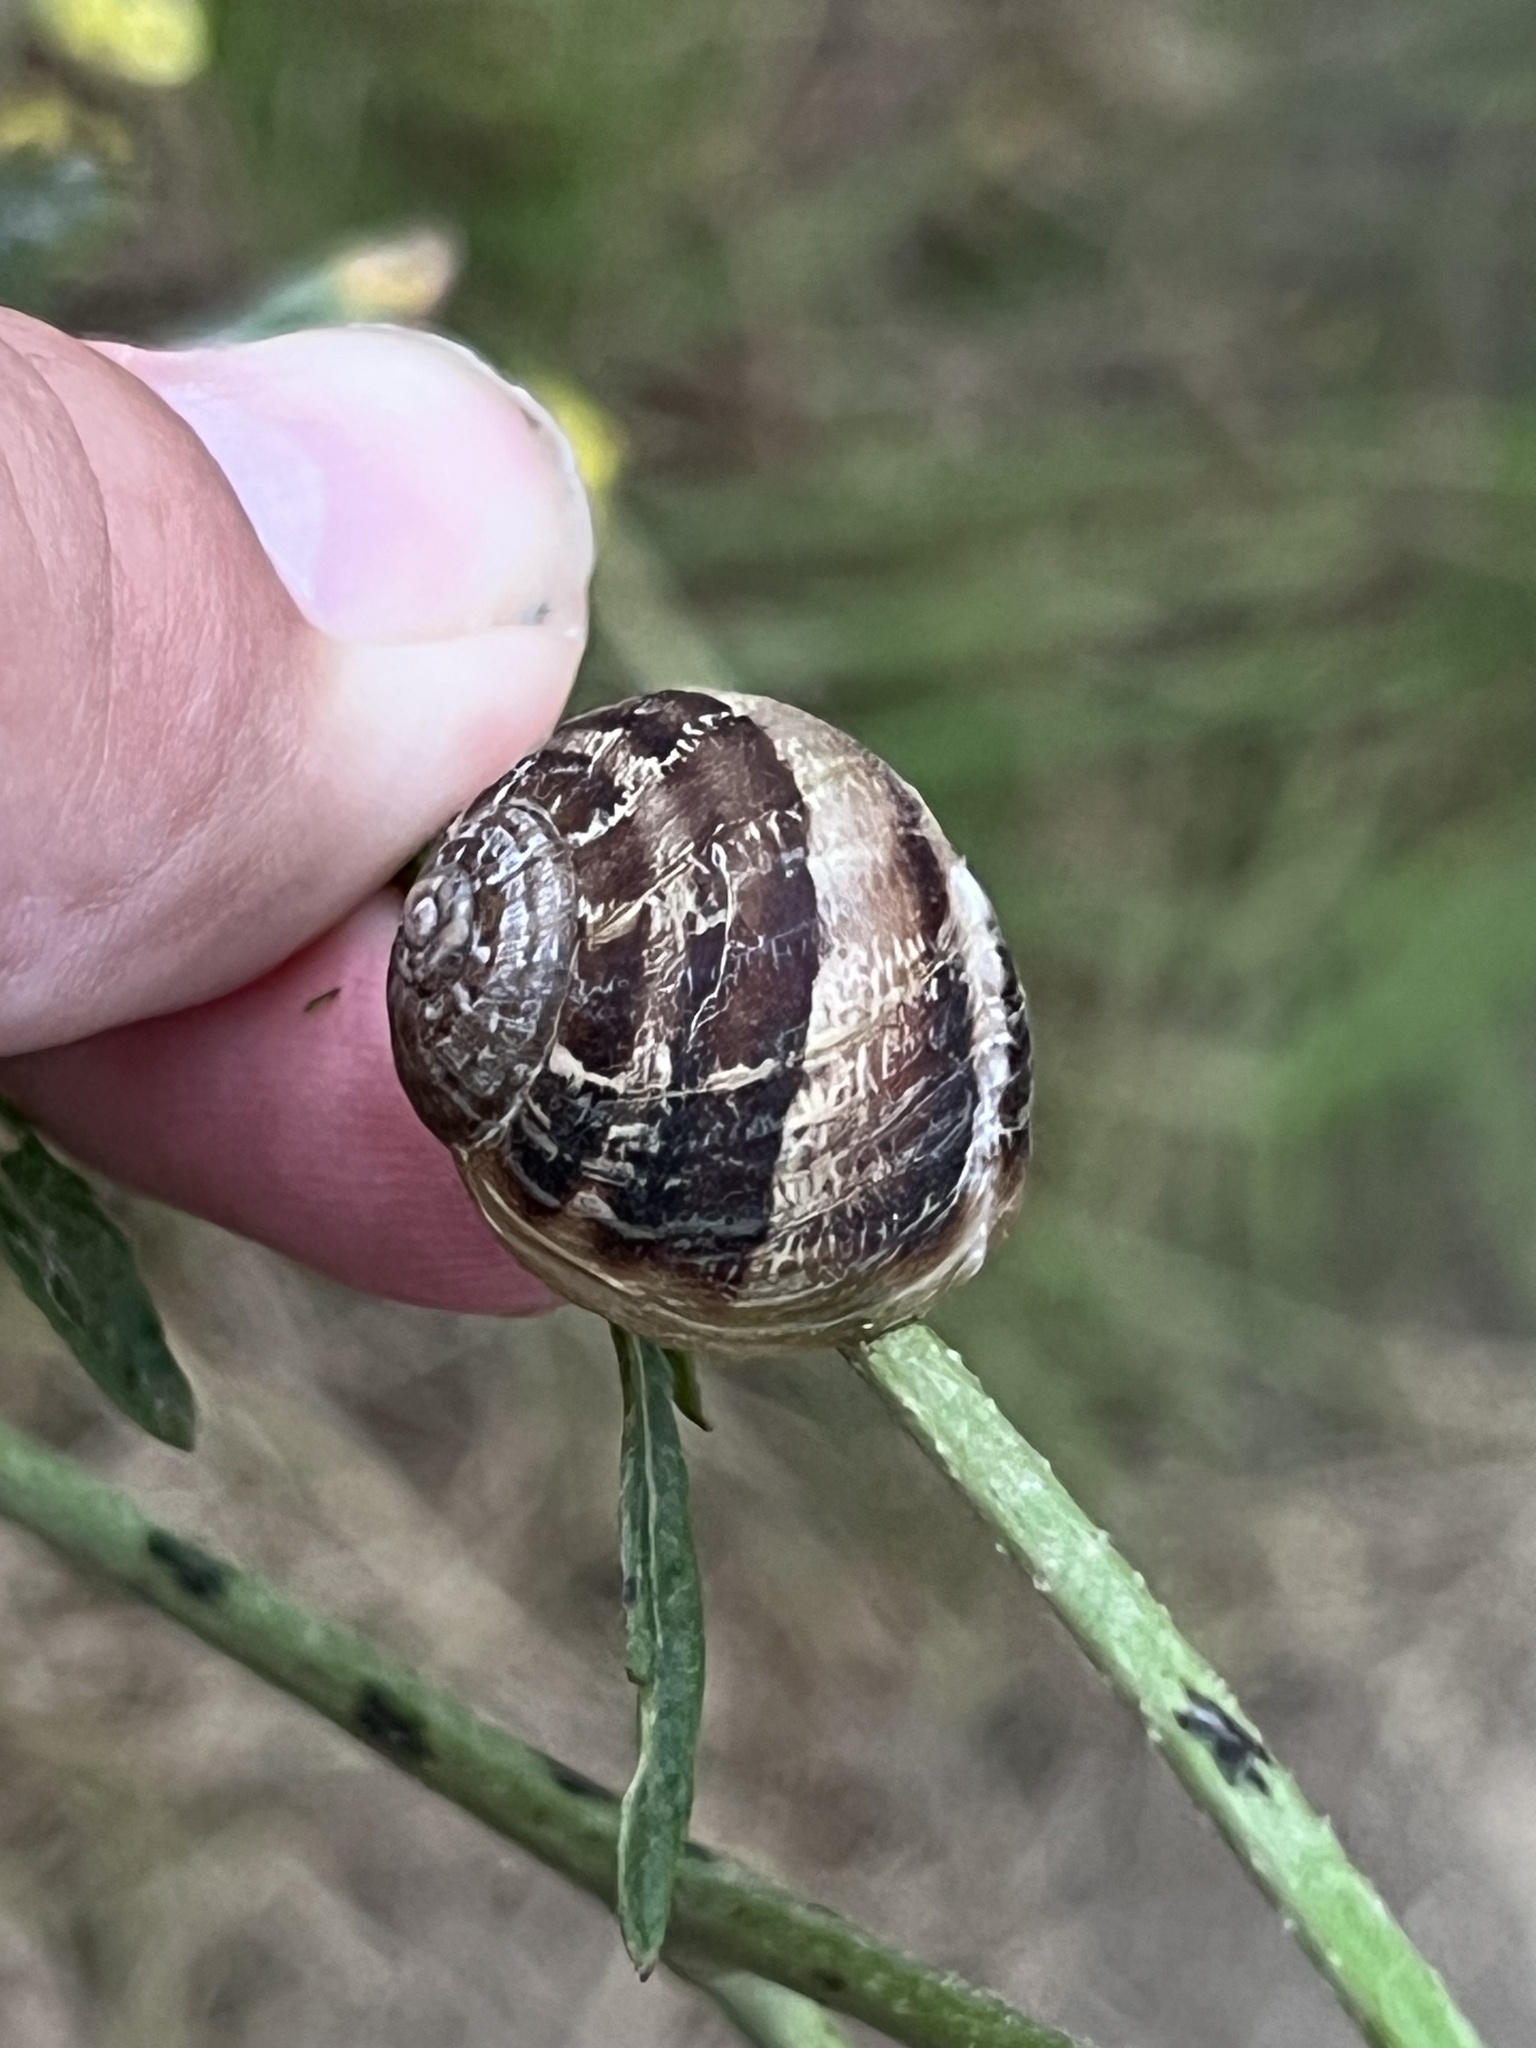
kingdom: Animalia
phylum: Mollusca
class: Gastropoda
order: Stylommatophora
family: Helicidae
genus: Cornu
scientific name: Cornu aspersum
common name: Brown garden snail
